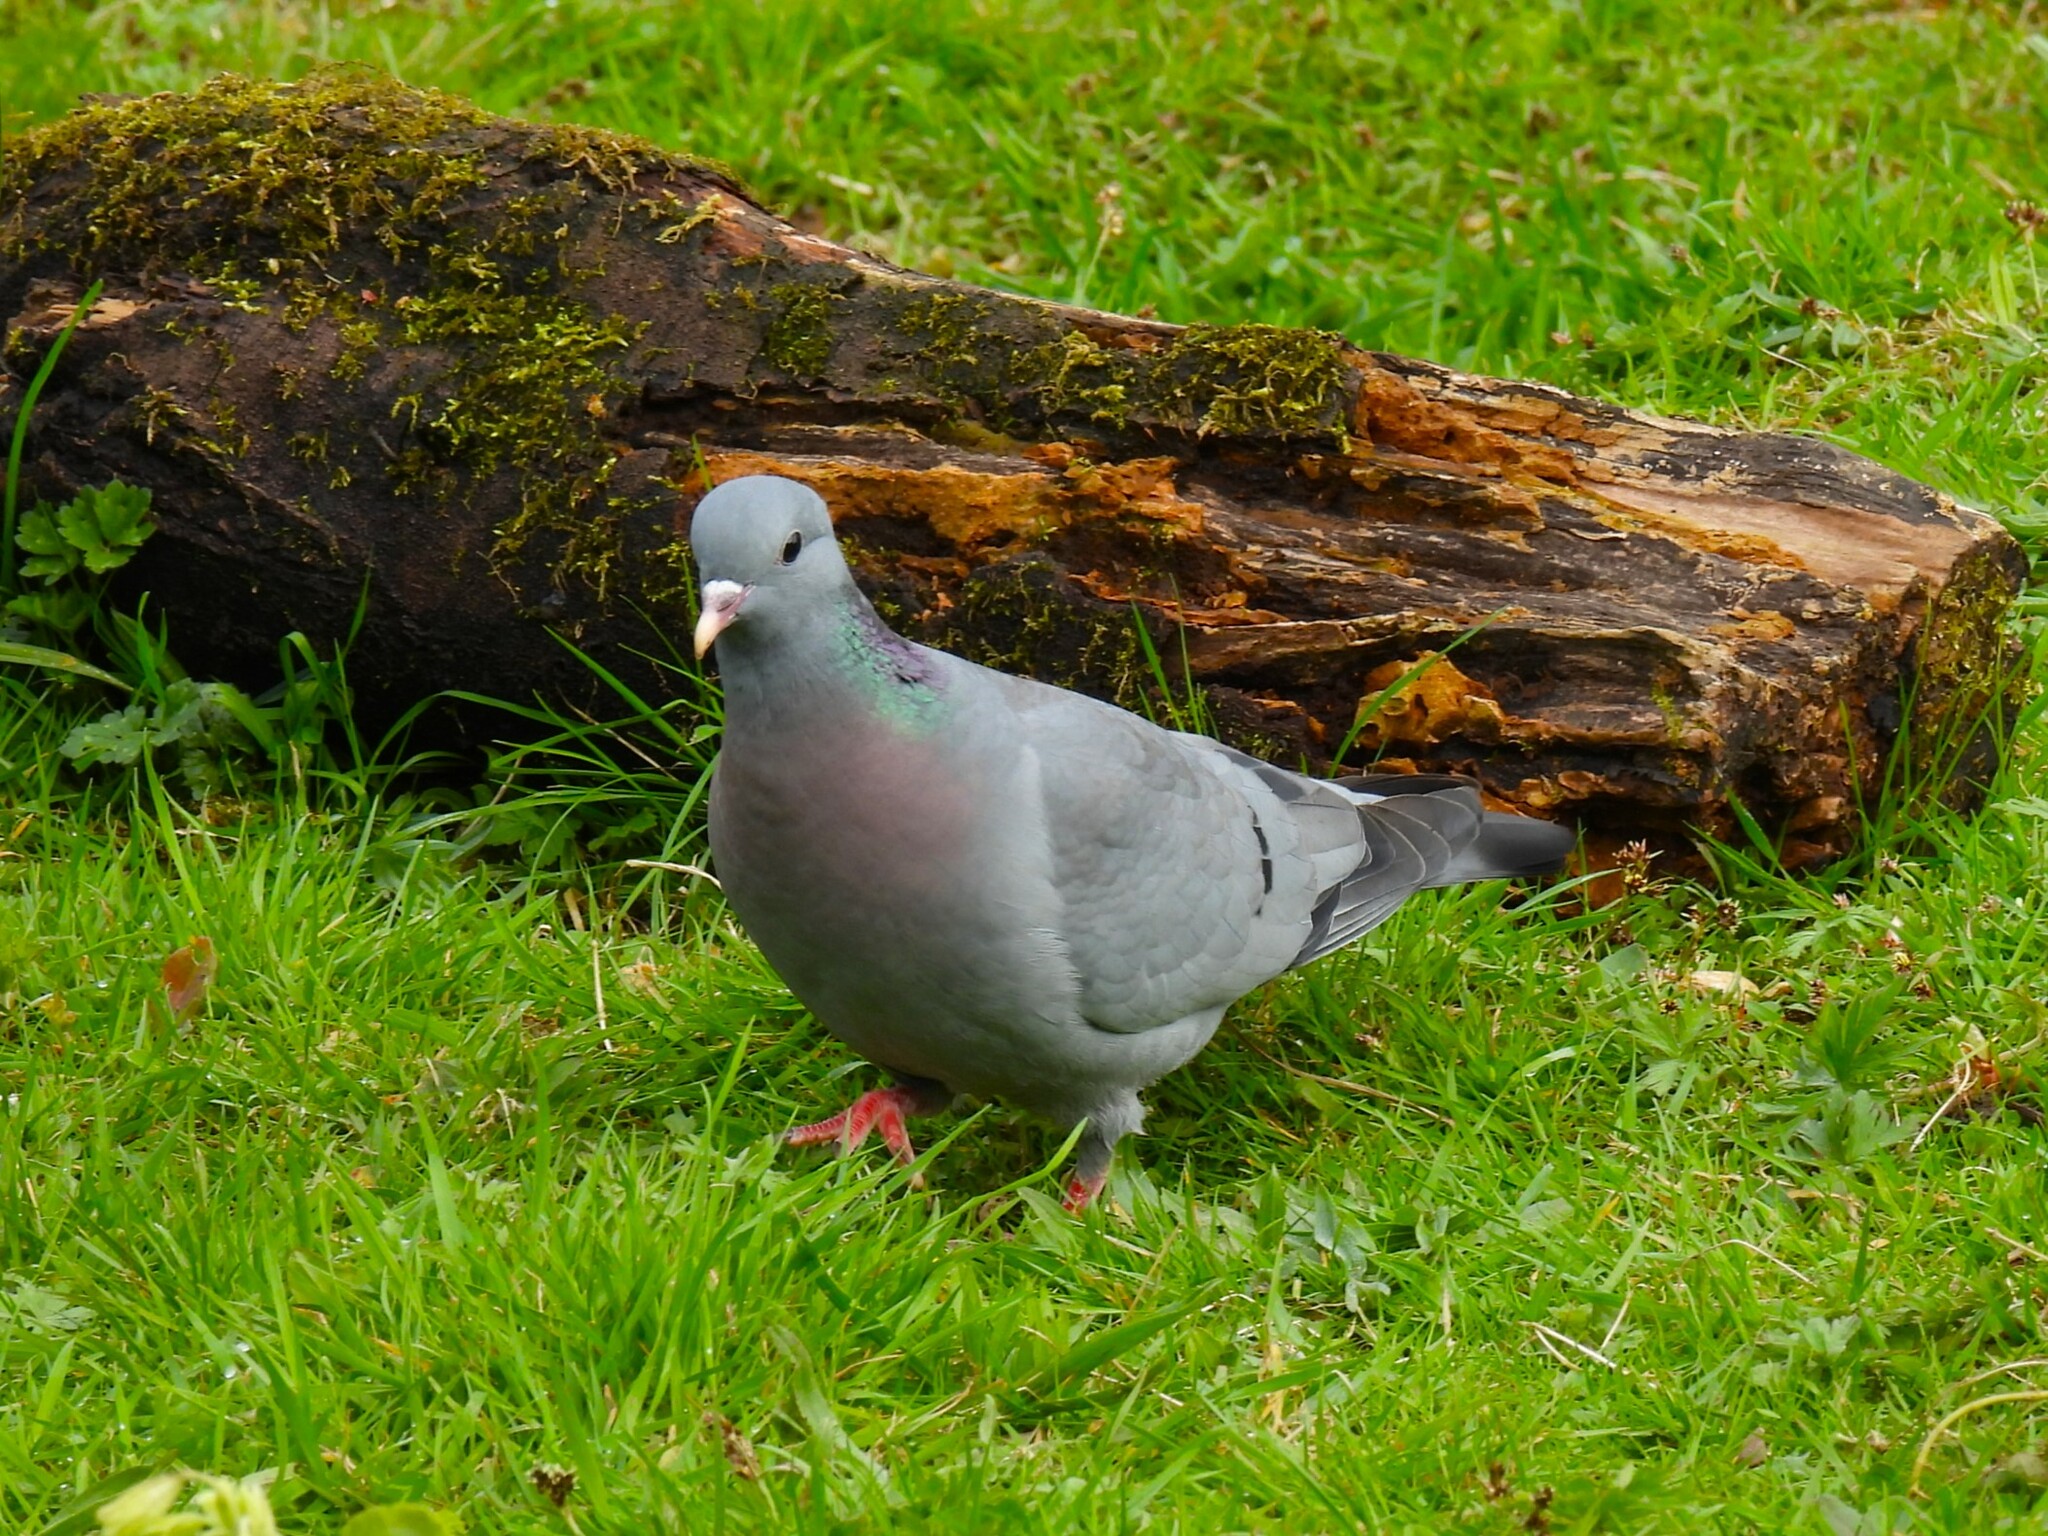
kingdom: Animalia
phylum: Chordata
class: Aves
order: Columbiformes
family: Columbidae
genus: Columba
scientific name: Columba oenas
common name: Stock dove
